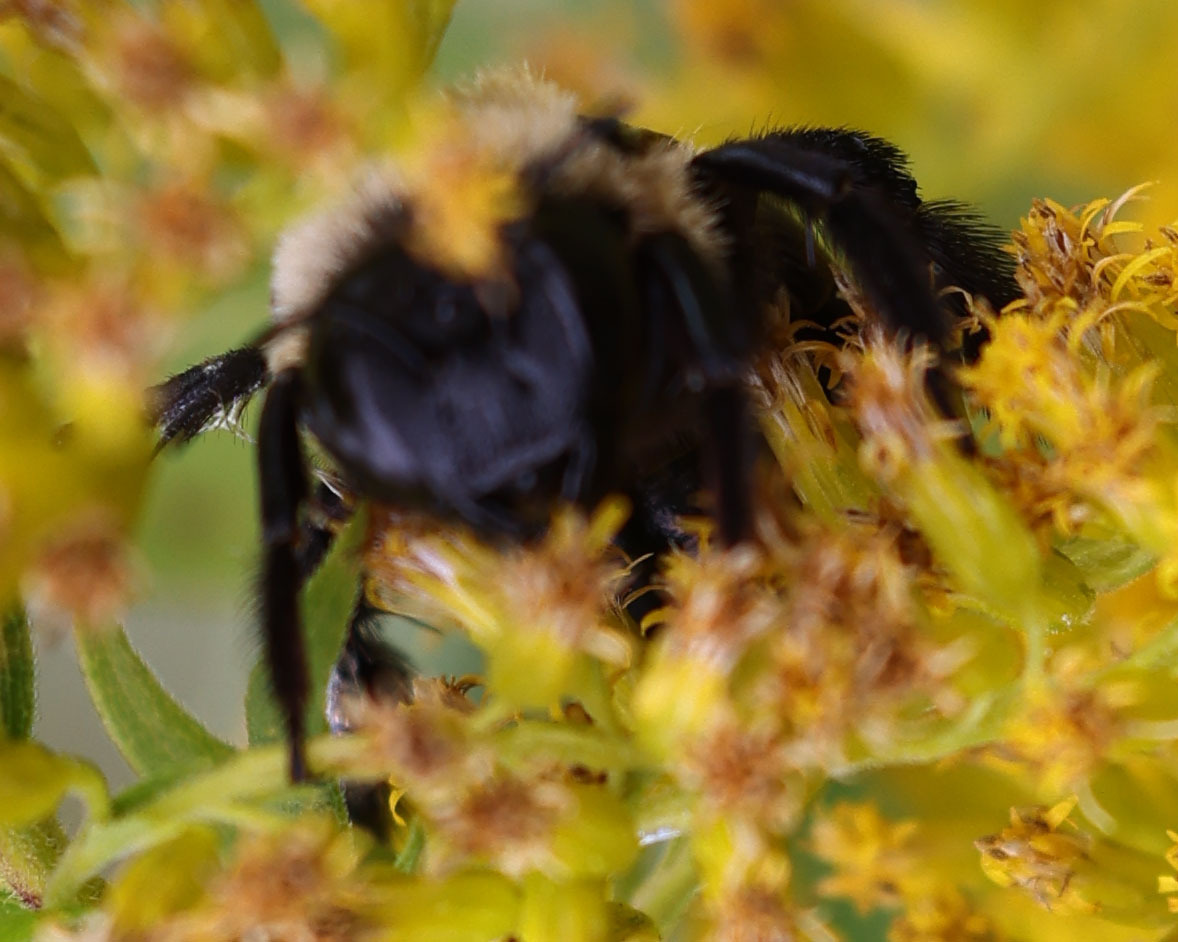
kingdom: Animalia
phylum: Arthropoda
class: Insecta
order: Hymenoptera
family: Apidae
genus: Xylocopa
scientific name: Xylocopa virginica
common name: Carpenter bee
